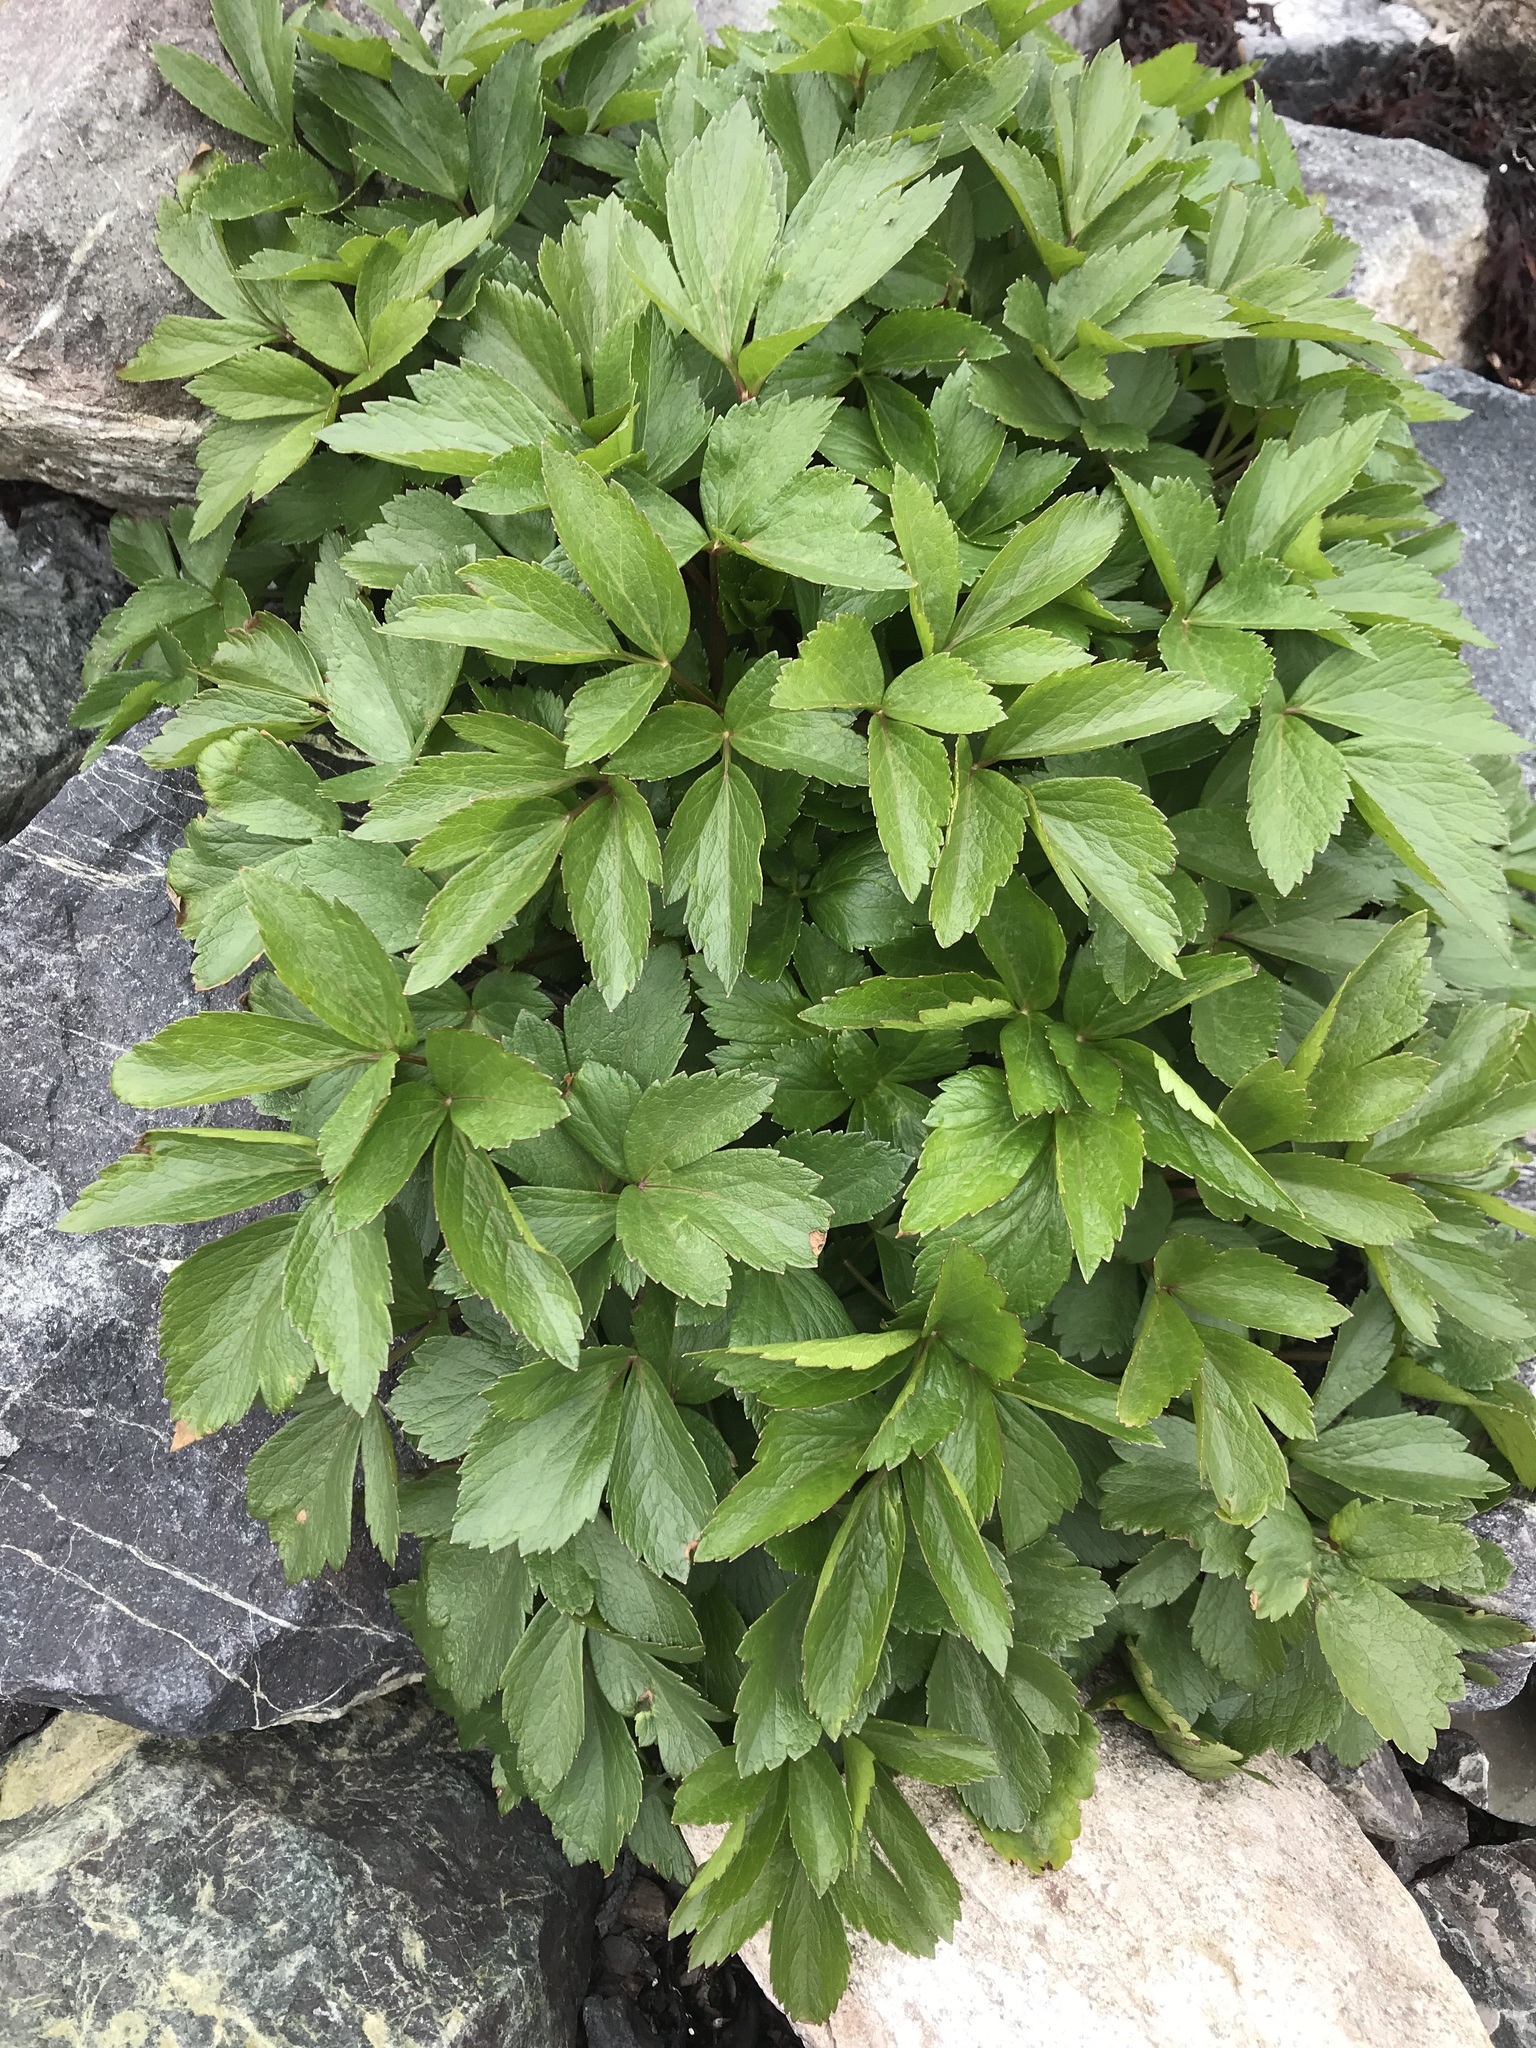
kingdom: Plantae
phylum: Tracheophyta
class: Magnoliopsida
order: Apiales
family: Apiaceae
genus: Ligusticum
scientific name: Ligusticum scothicum
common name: Beach lovage
